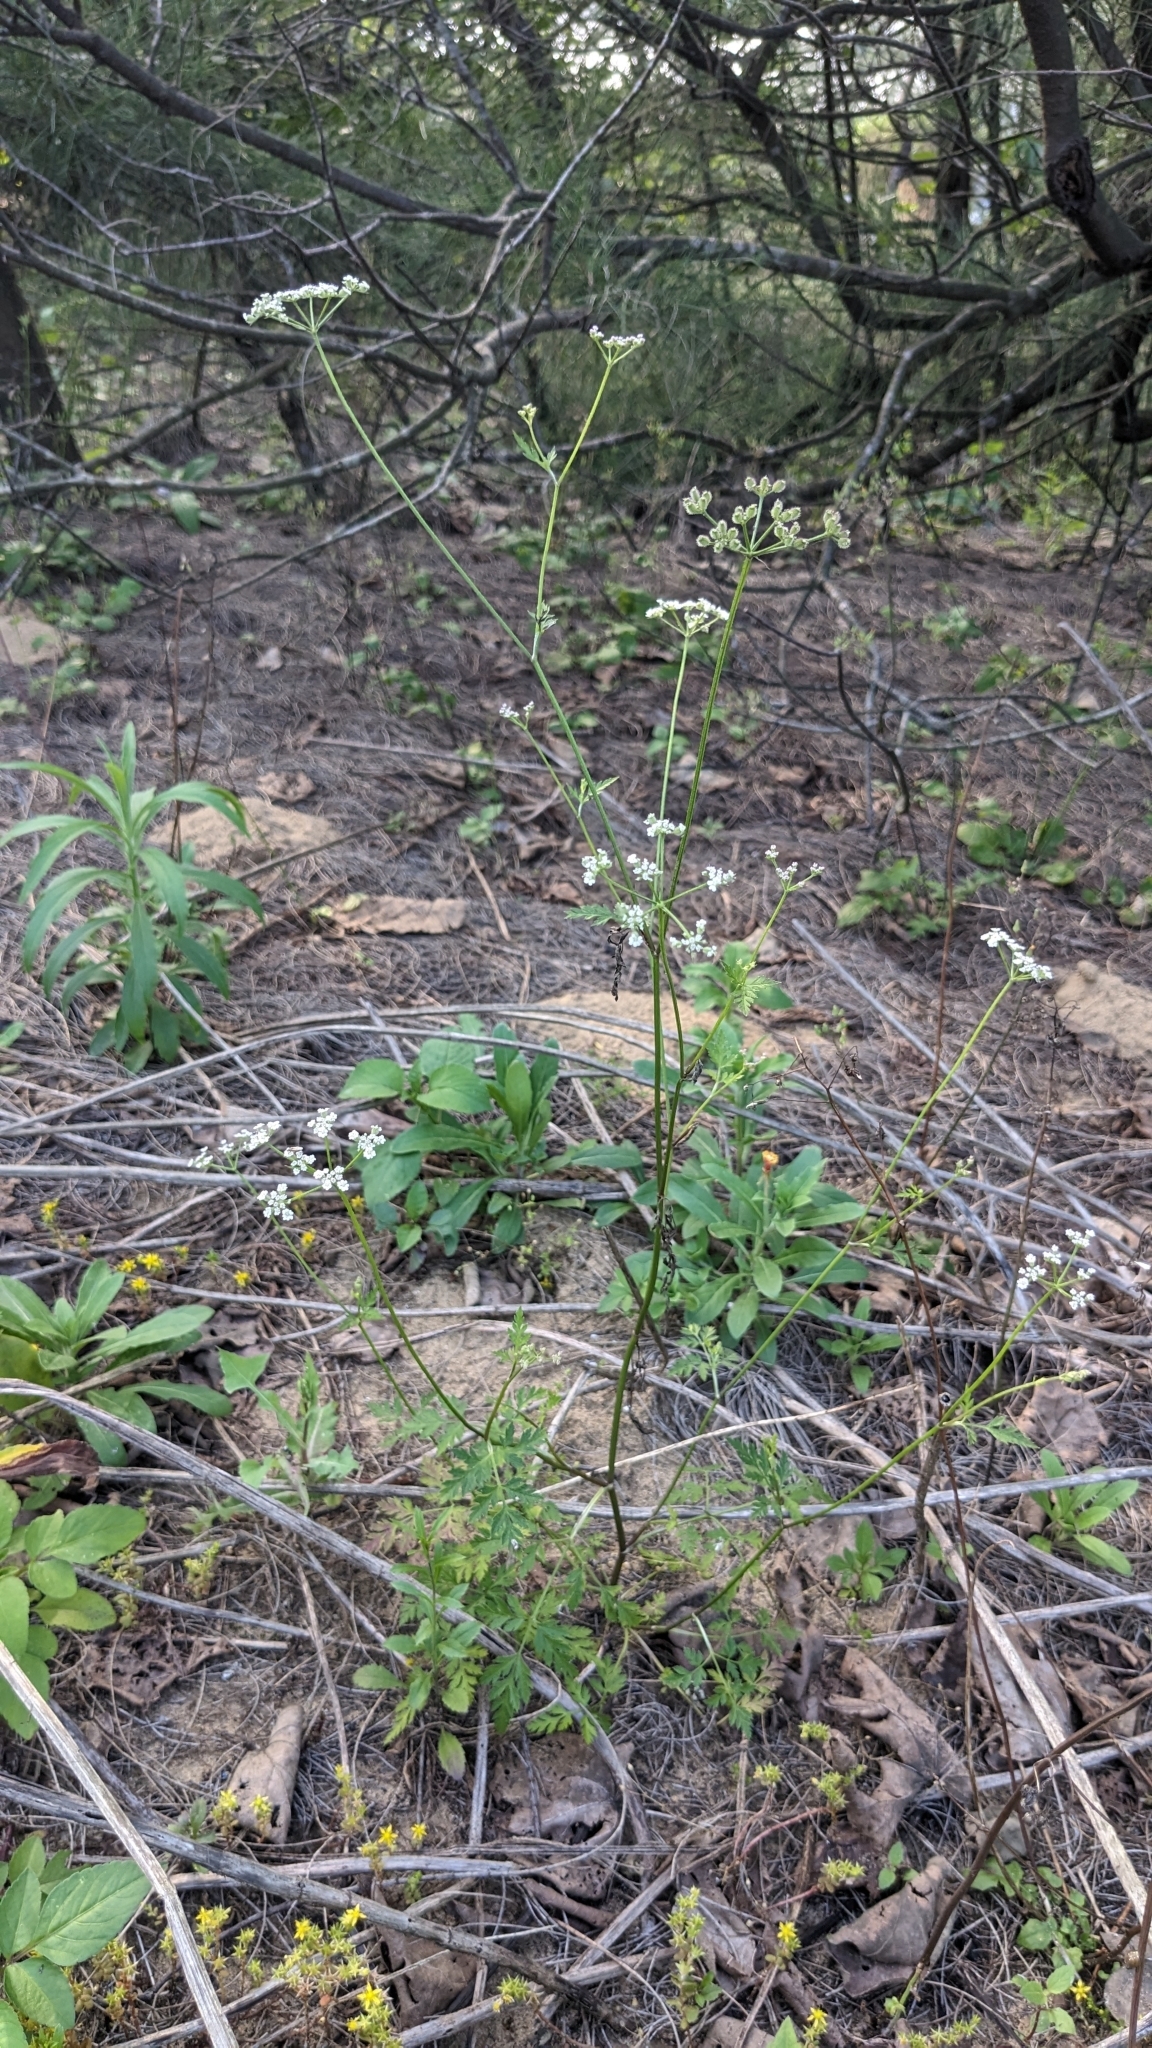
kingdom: Plantae
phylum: Tracheophyta
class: Magnoliopsida
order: Apiales
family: Apiaceae
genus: Torilis
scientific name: Torilis japonica
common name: Upright hedge-parsley
